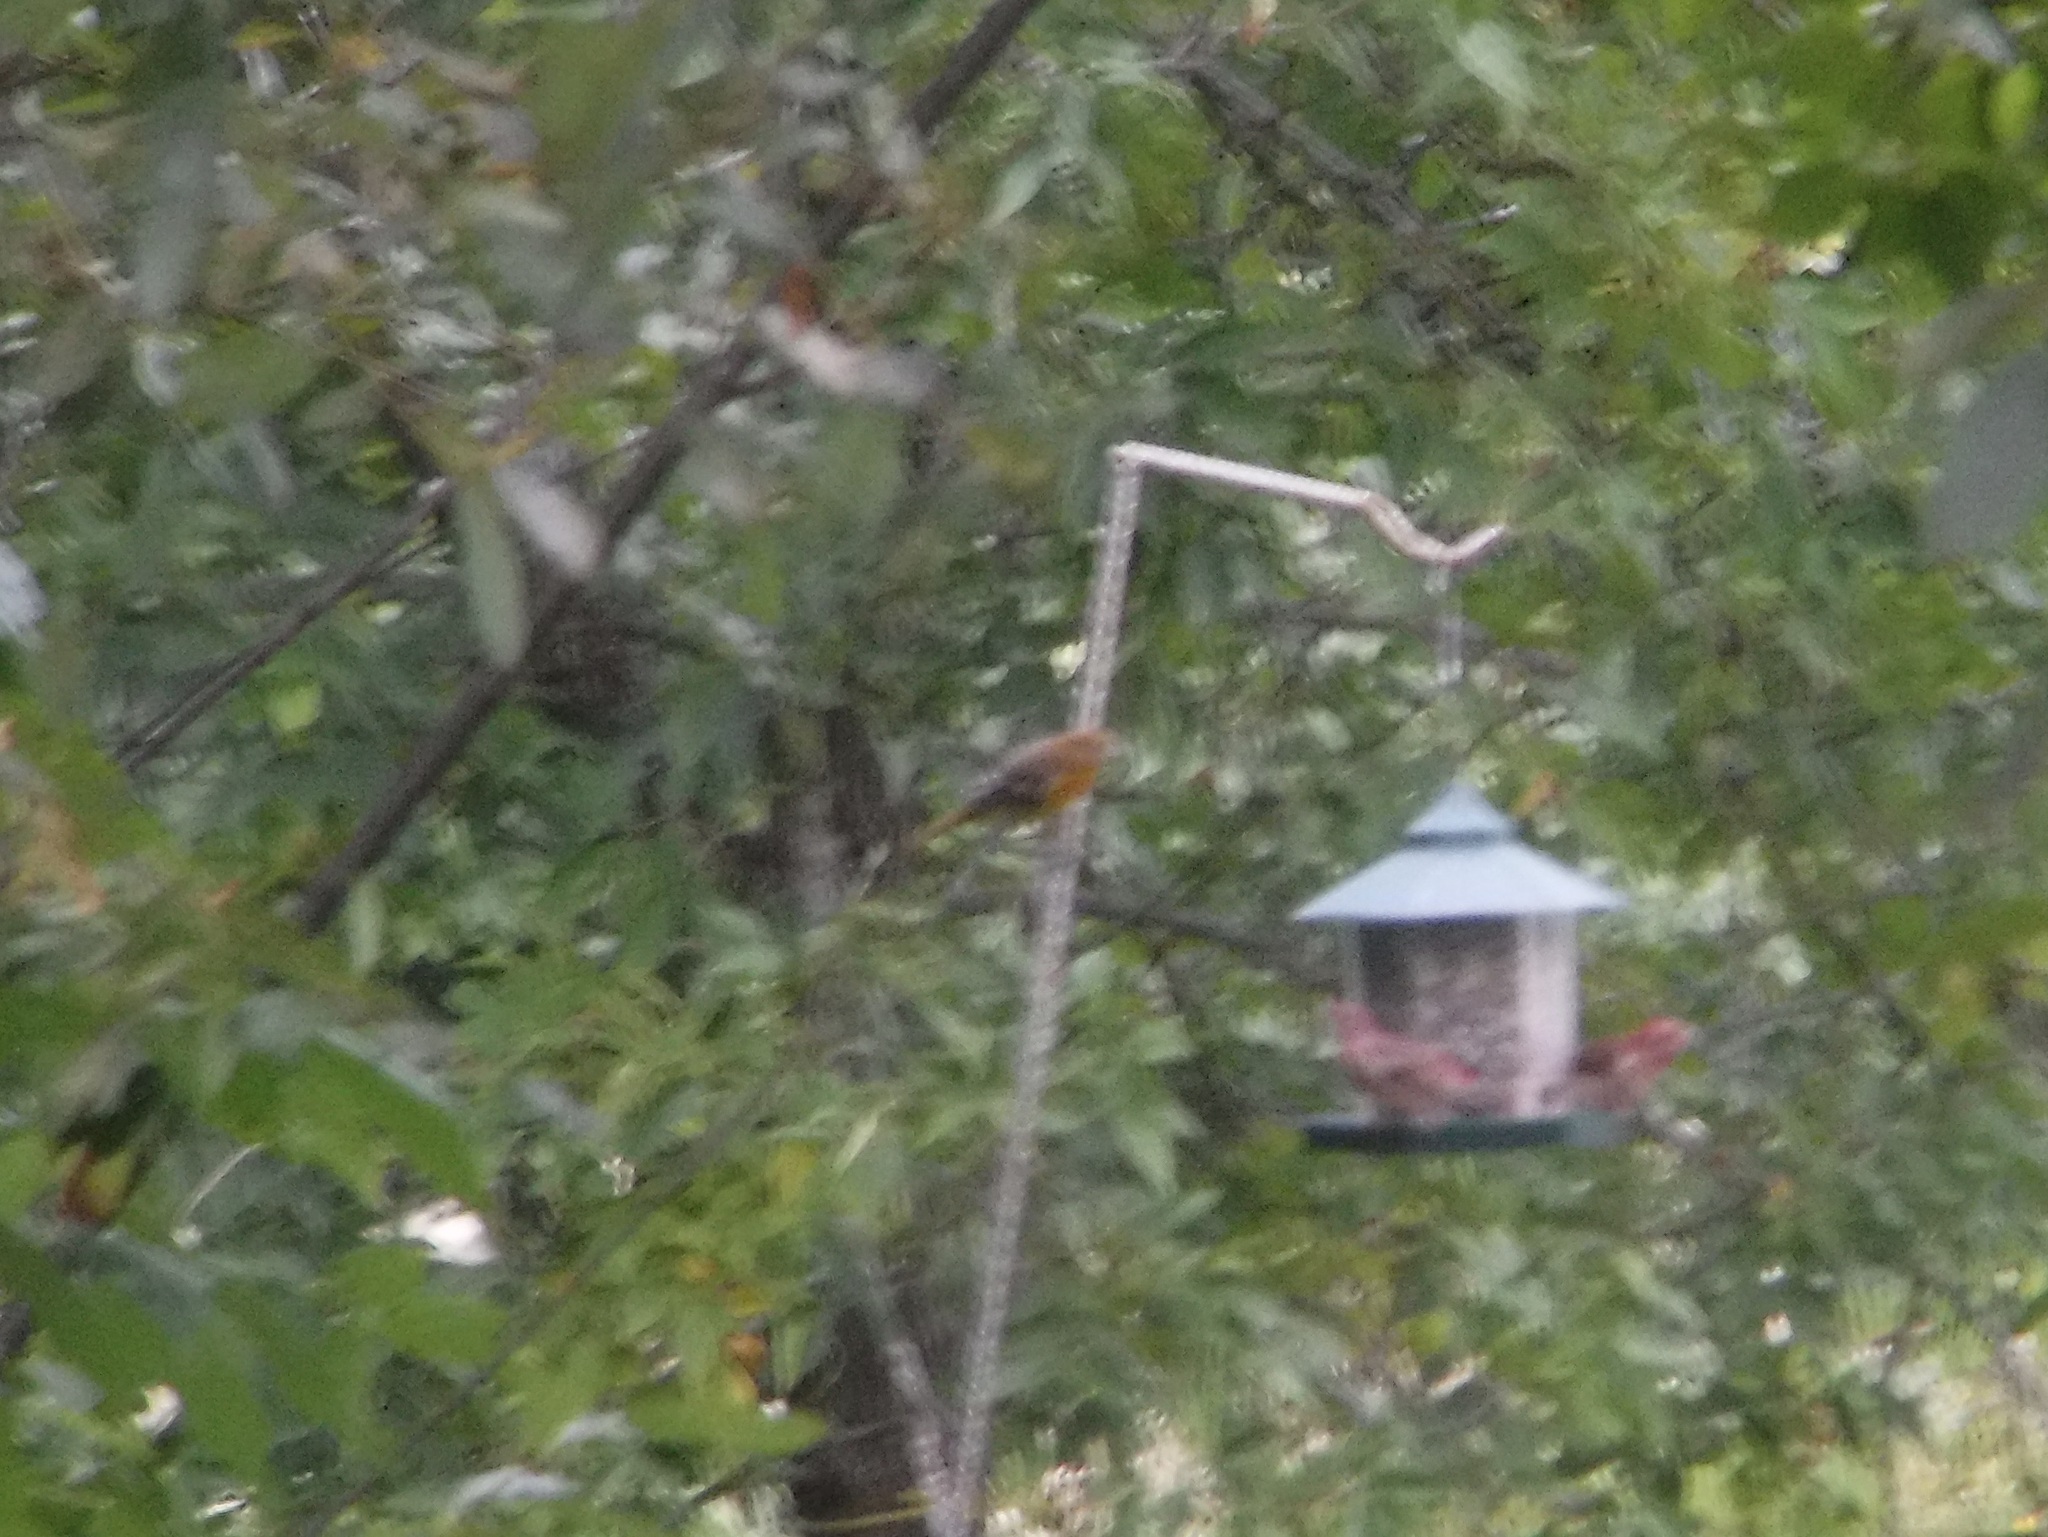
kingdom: Animalia
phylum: Chordata
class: Aves
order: Passeriformes
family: Icteridae
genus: Icterus
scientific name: Icterus galbula
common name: Baltimore oriole
